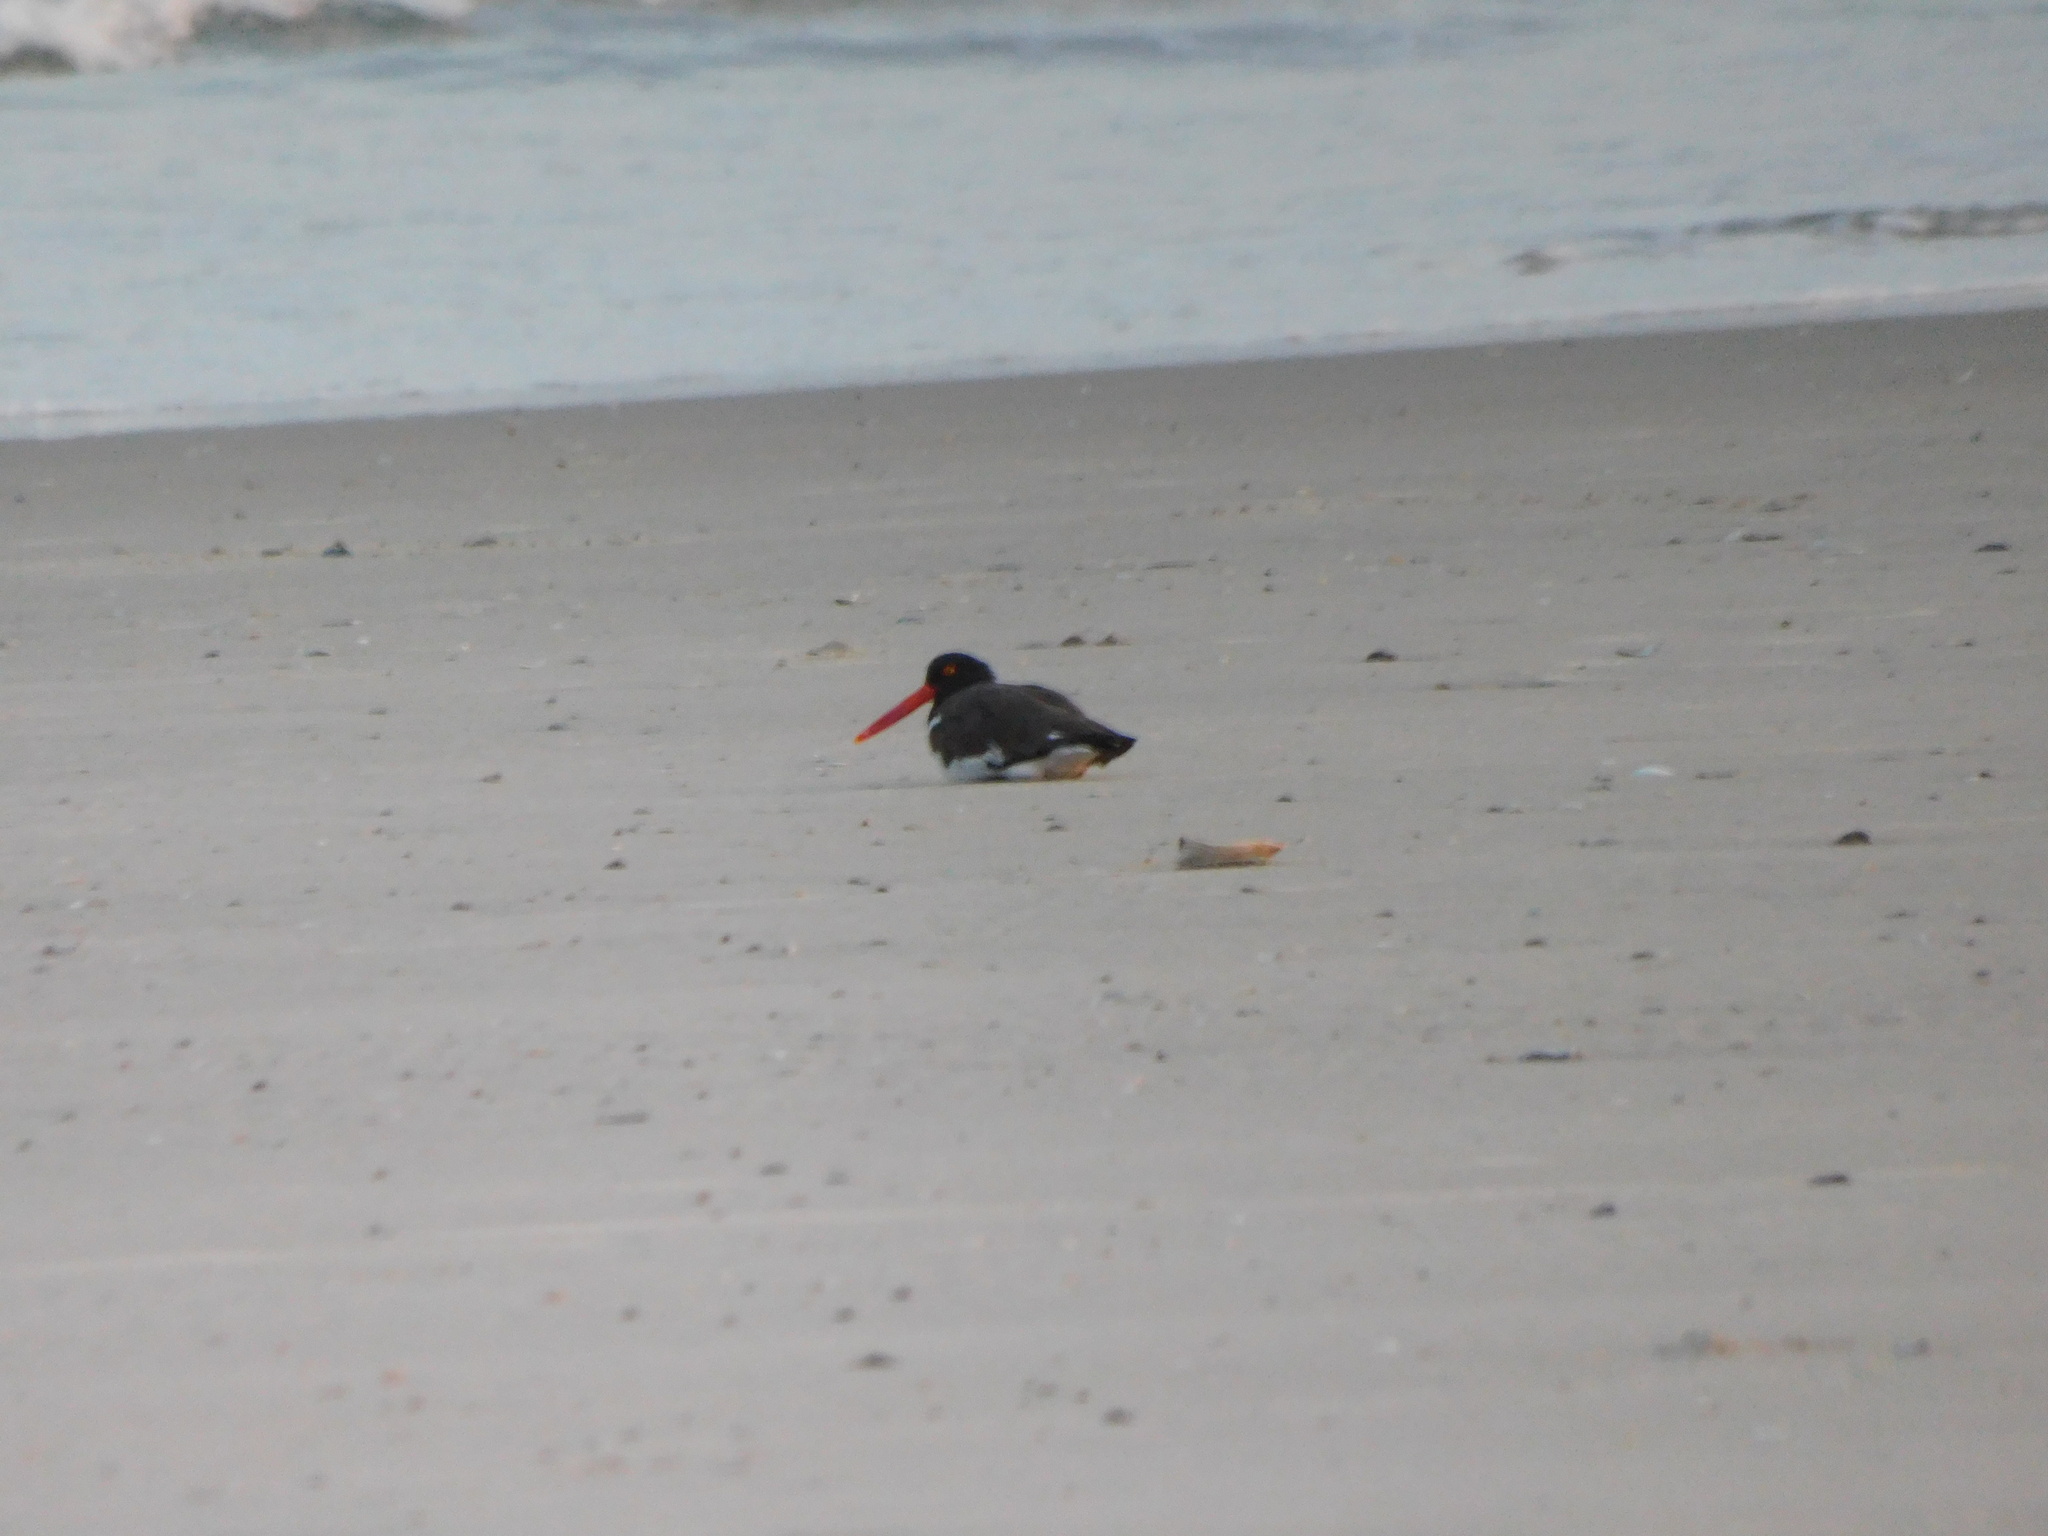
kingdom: Animalia
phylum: Chordata
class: Aves
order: Charadriiformes
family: Haematopodidae
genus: Haematopus
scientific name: Haematopus palliatus
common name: American oystercatcher
